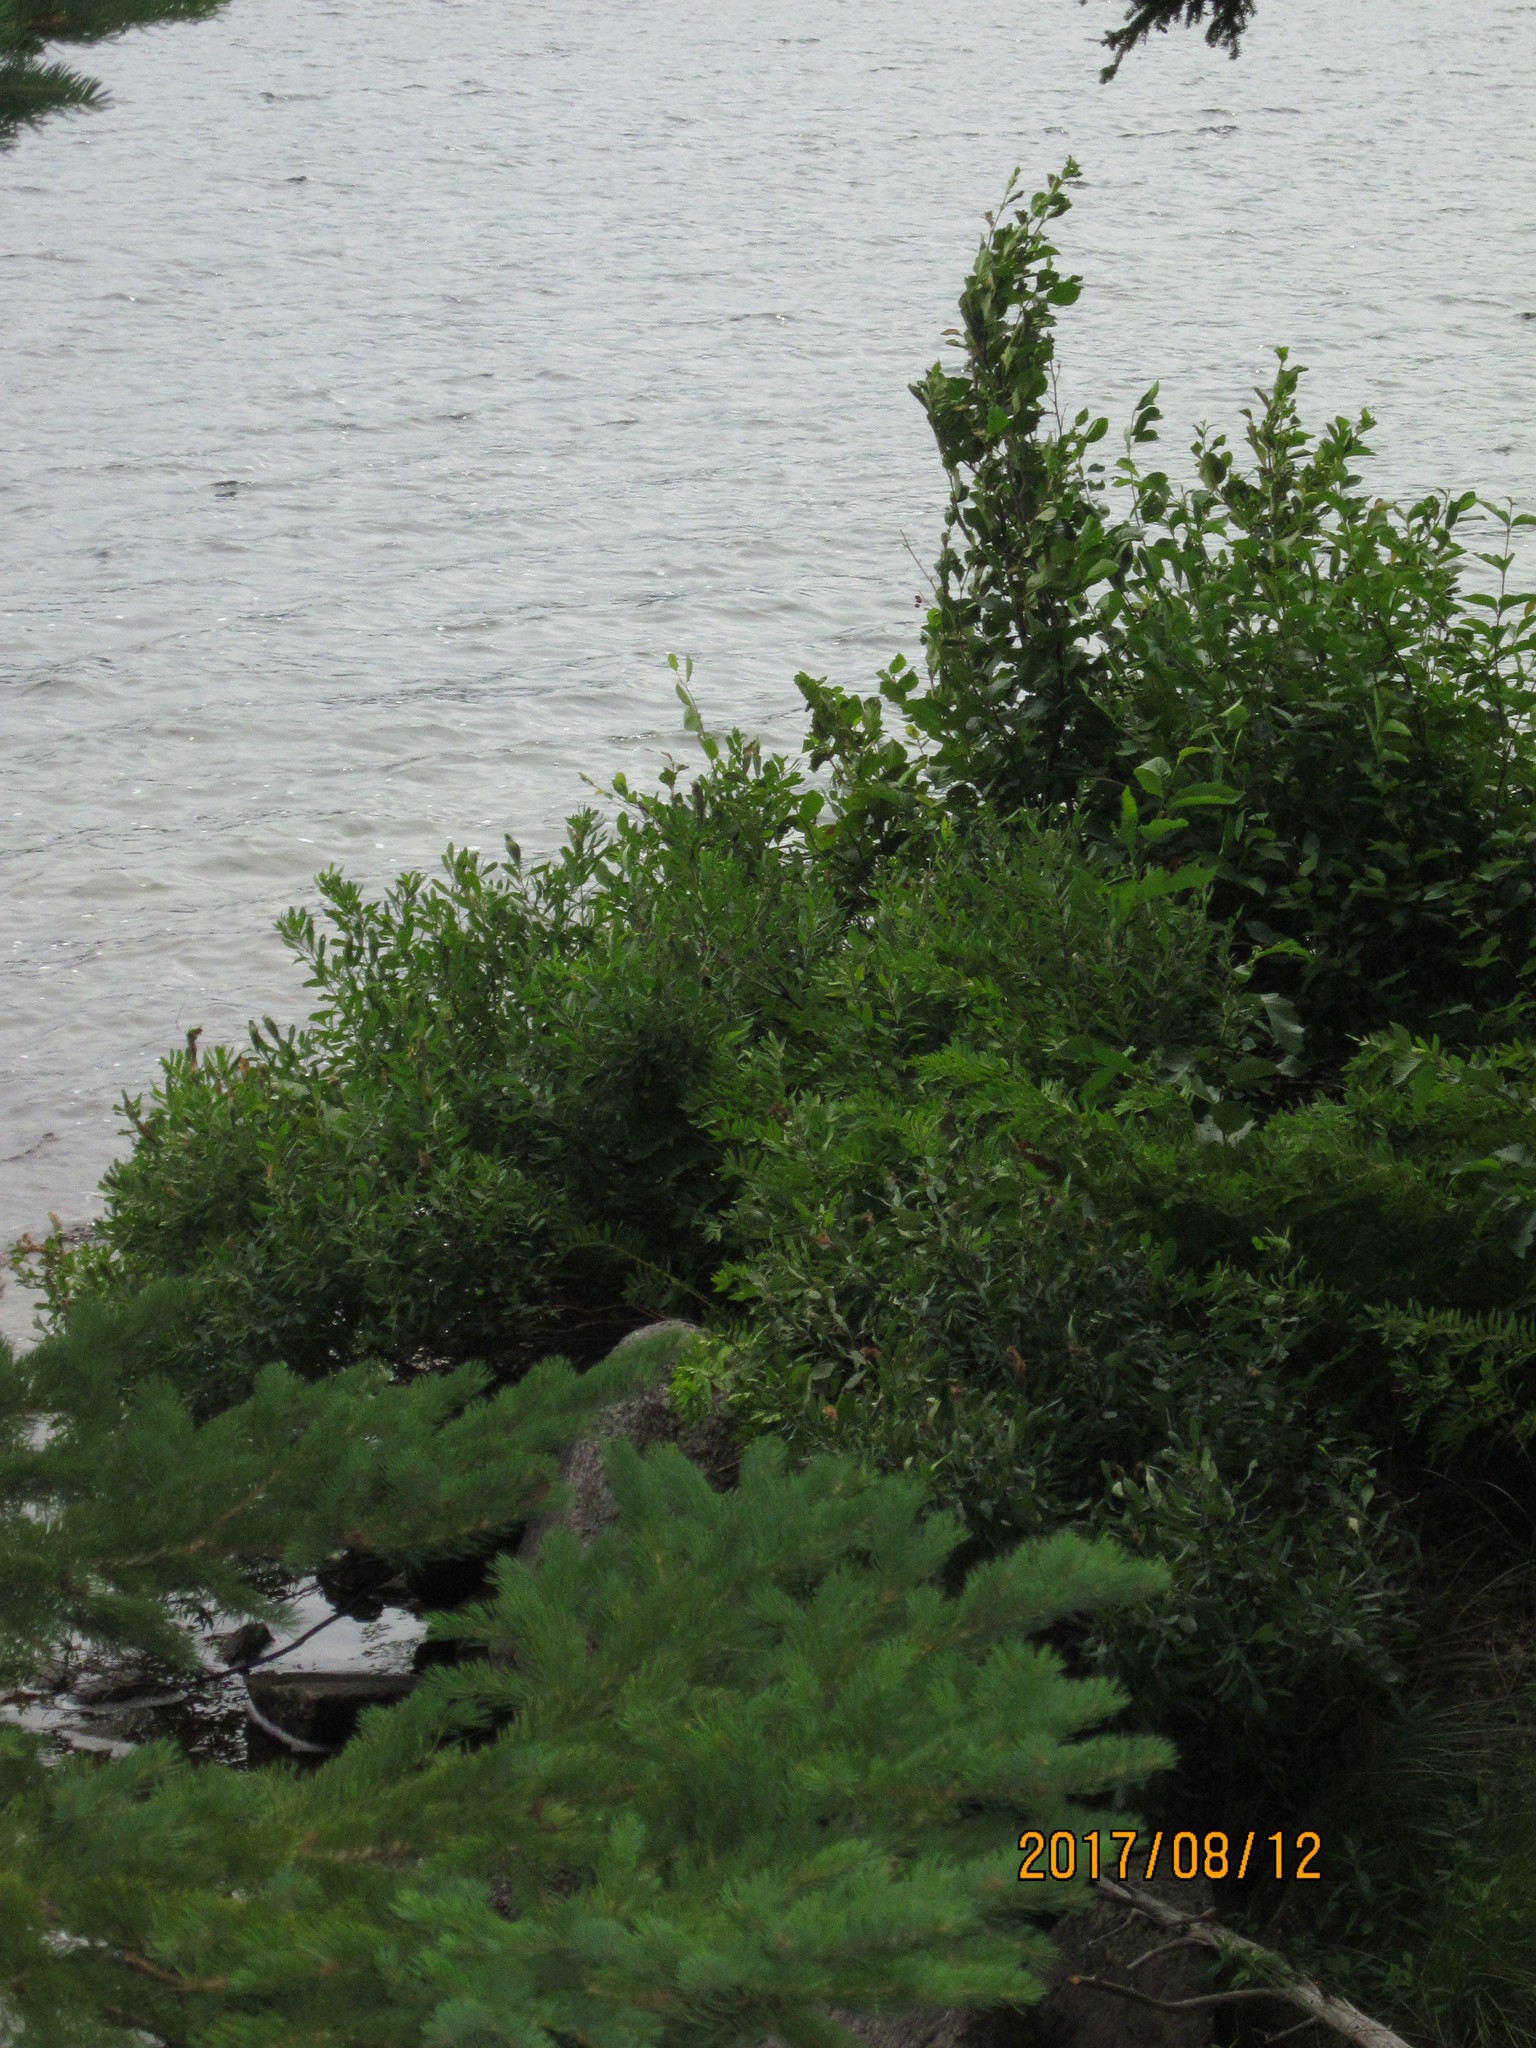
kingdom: Plantae
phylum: Tracheophyta
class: Magnoliopsida
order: Fagales
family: Myricaceae
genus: Myrica
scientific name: Myrica gale
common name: Sweet gale
